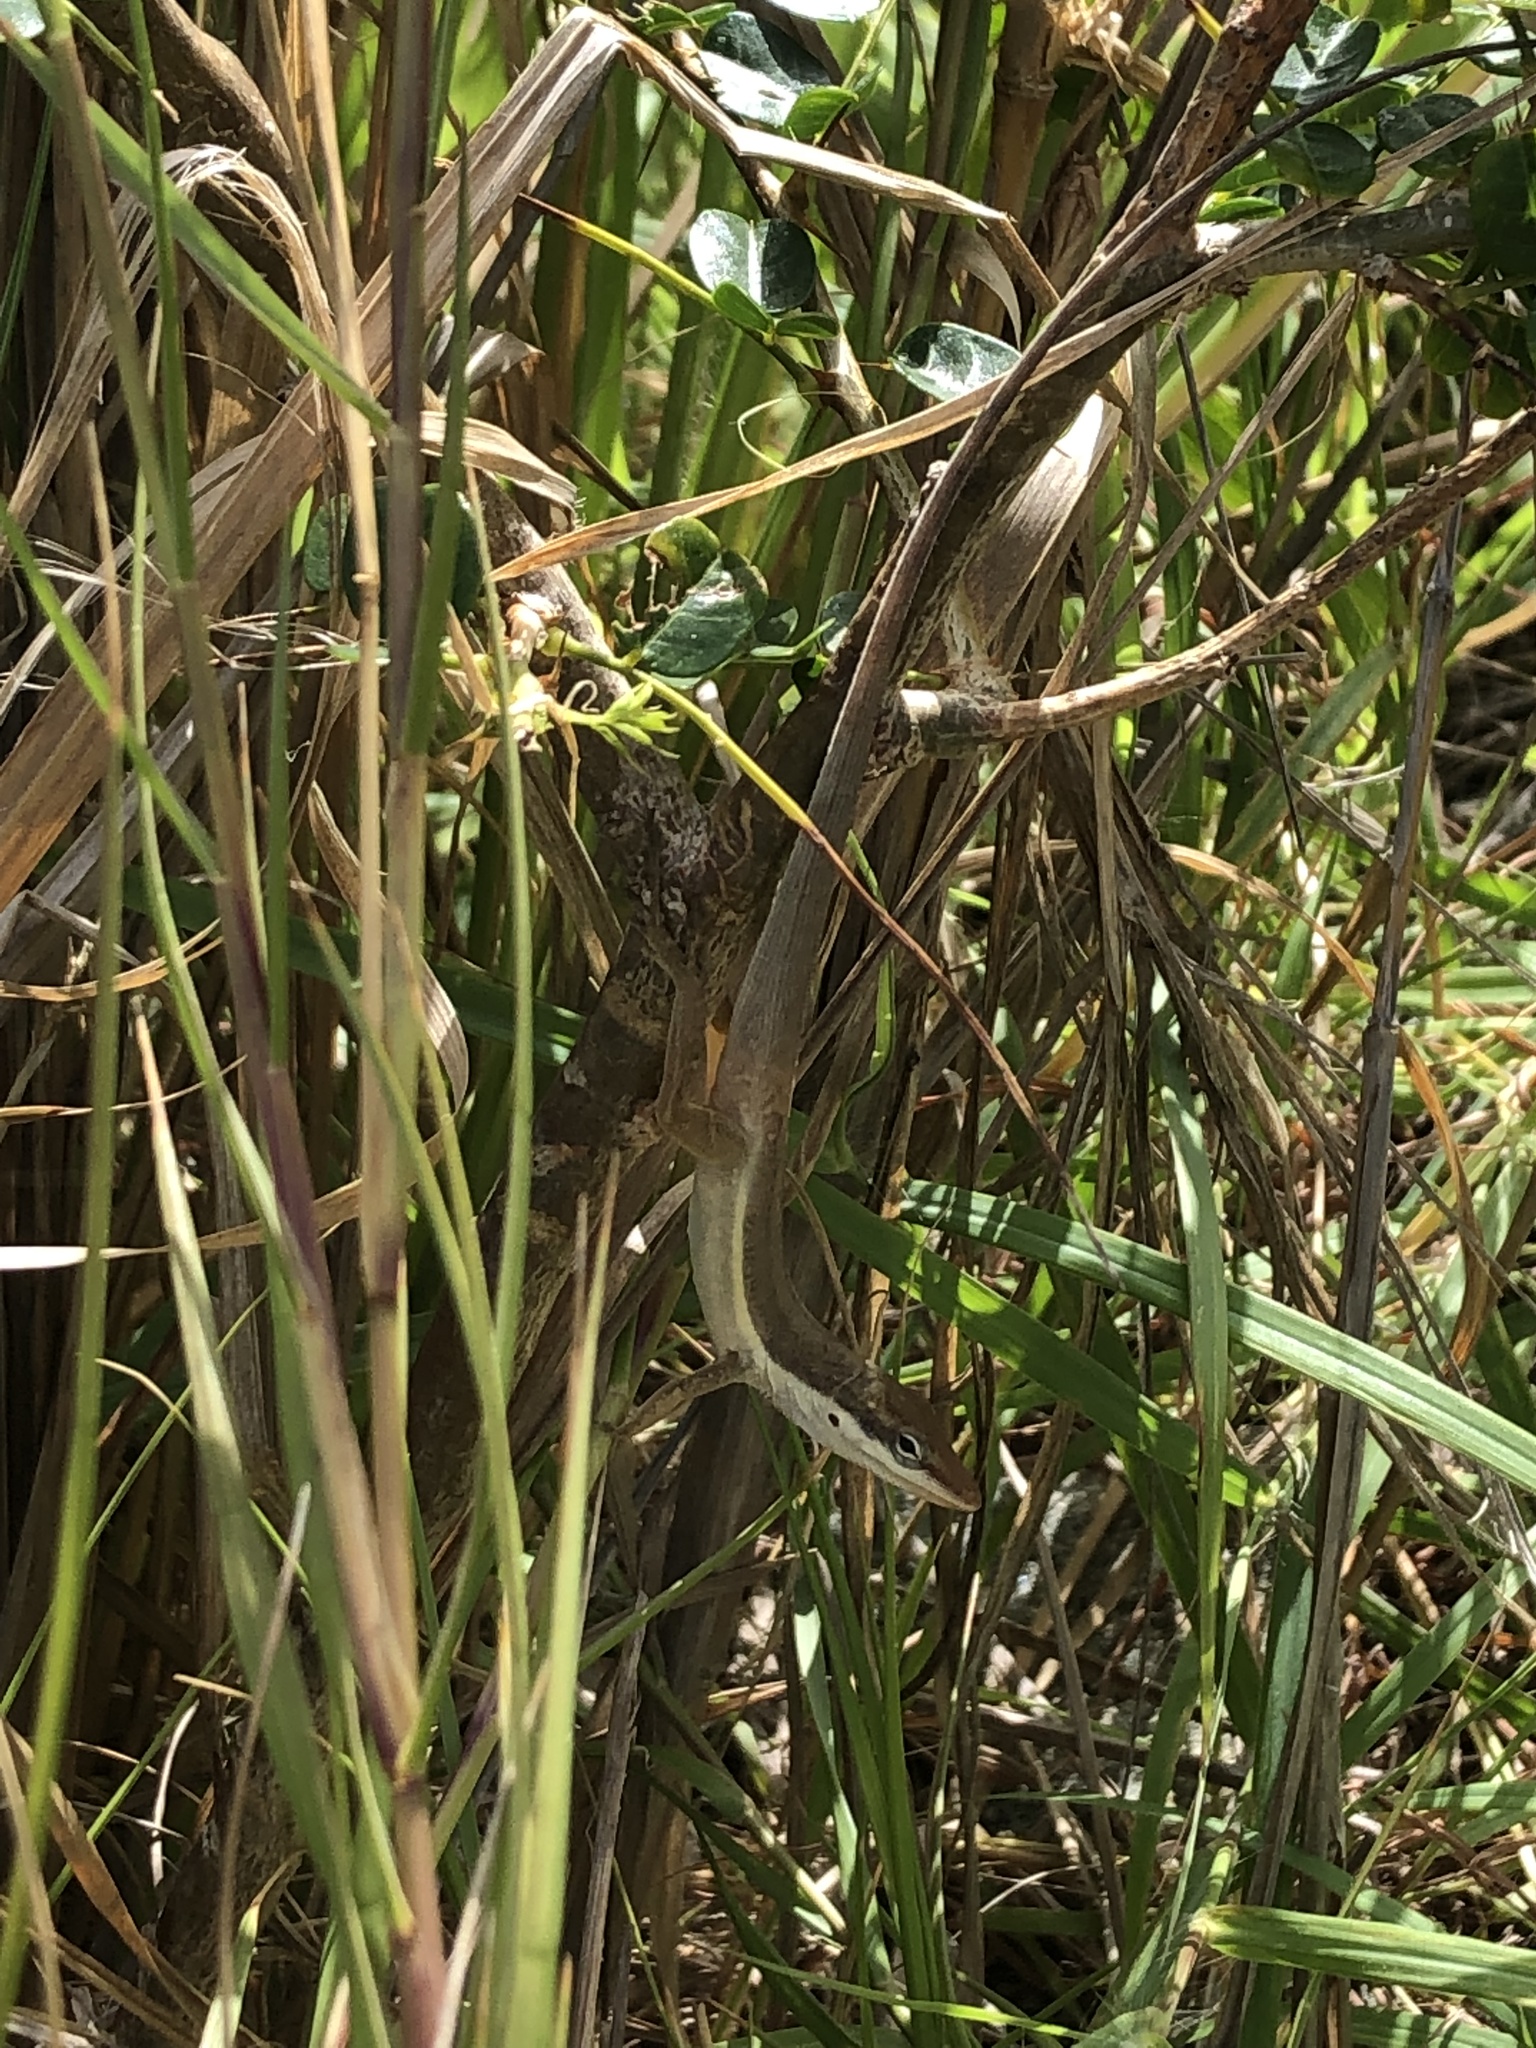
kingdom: Animalia
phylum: Chordata
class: Squamata
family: Dactyloidae
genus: Anolis
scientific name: Anolis pulchellus
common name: Puerto rican anole
